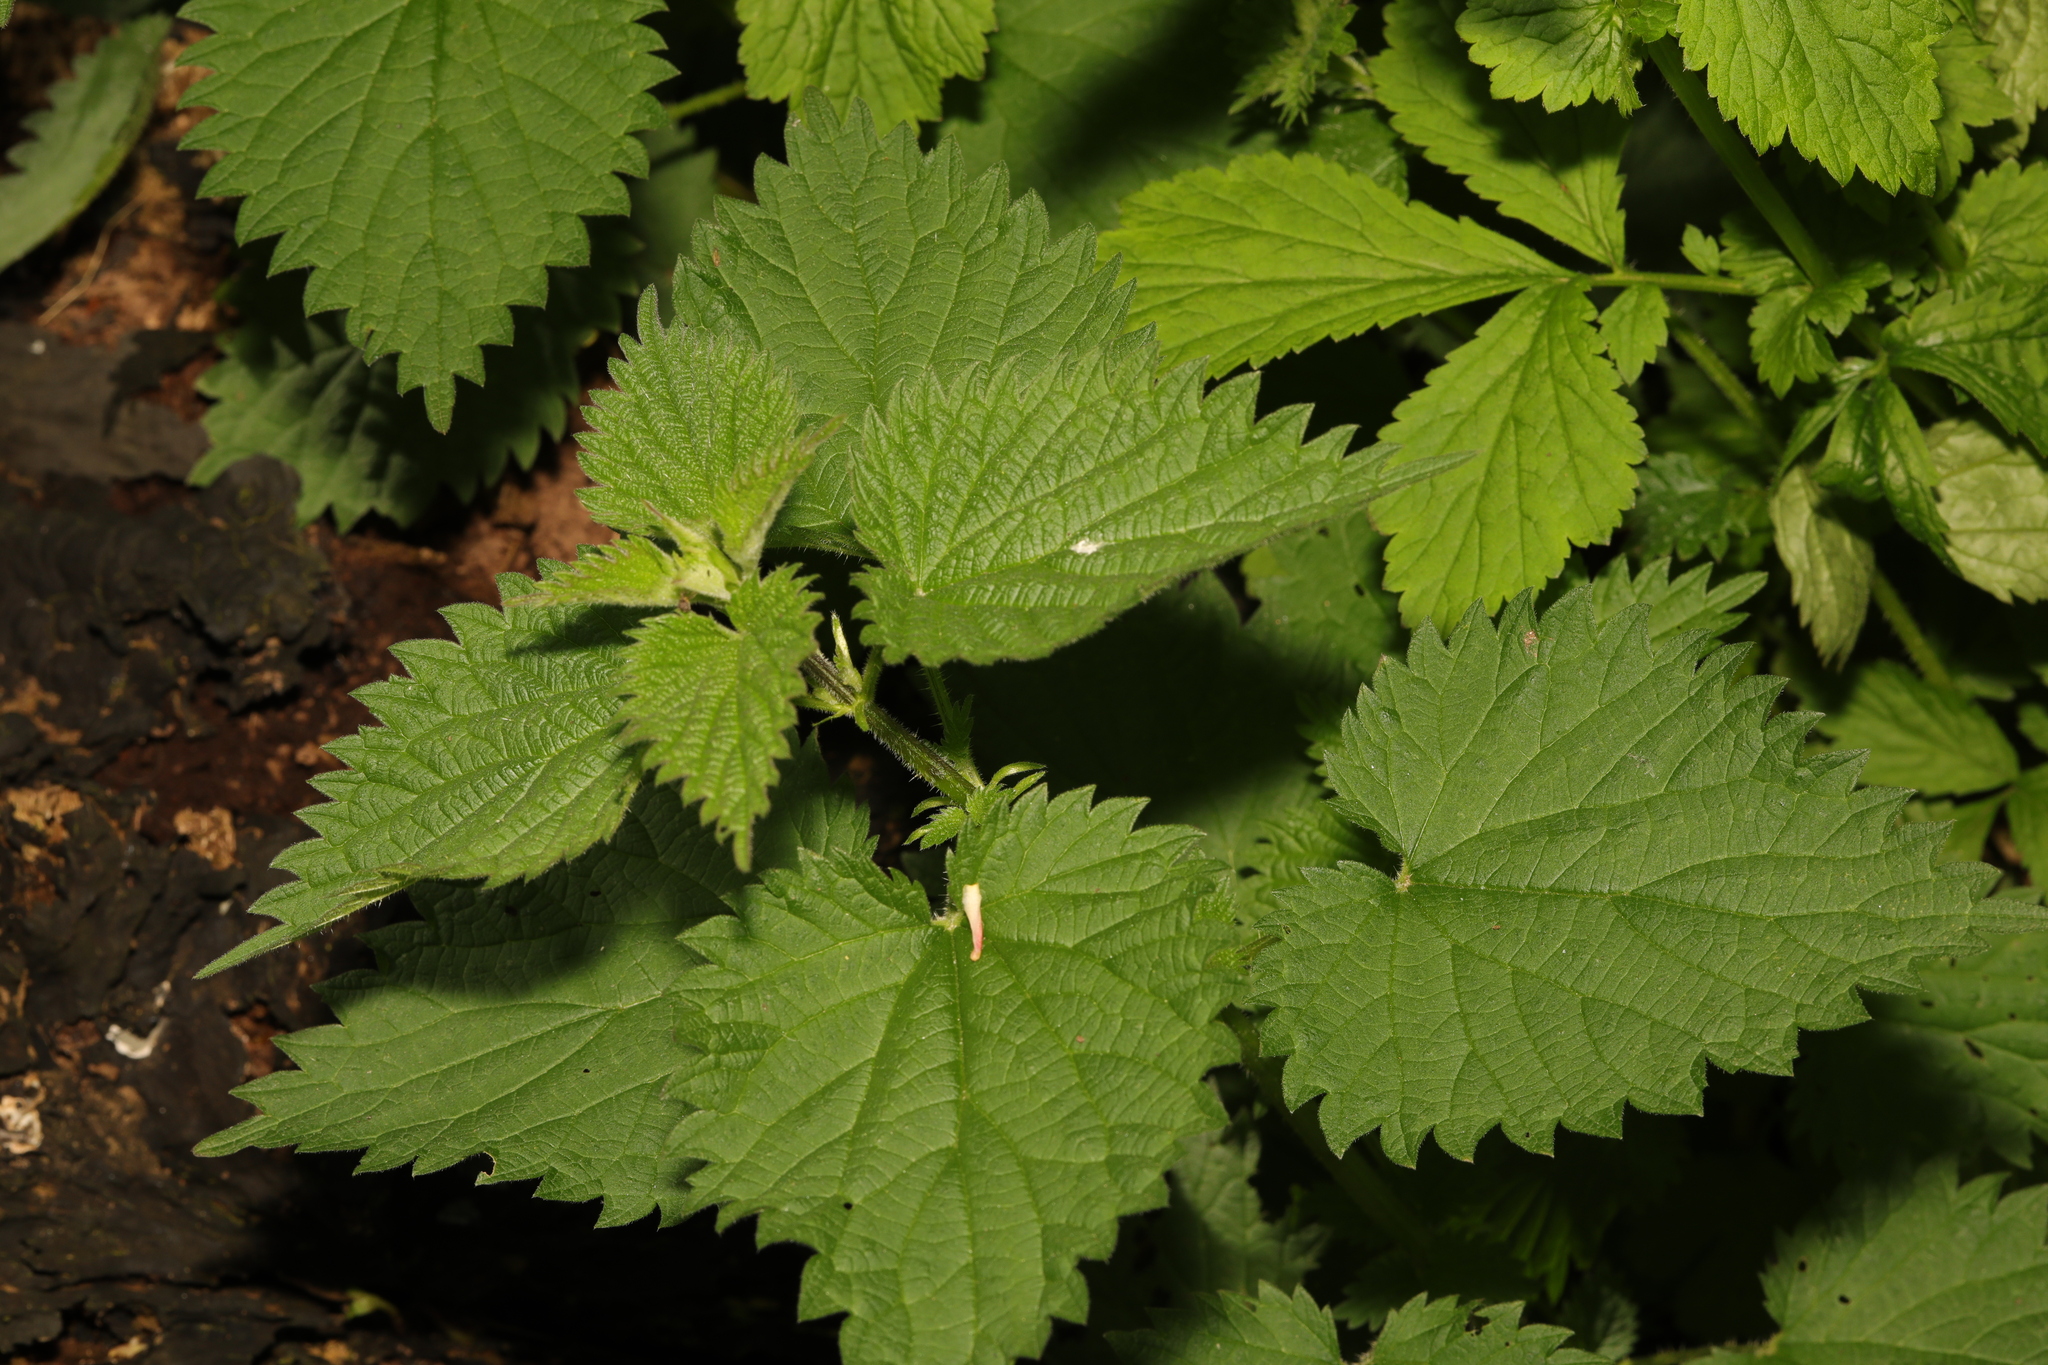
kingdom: Plantae
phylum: Tracheophyta
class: Magnoliopsida
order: Rosales
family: Urticaceae
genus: Urtica
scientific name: Urtica dioica
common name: Common nettle
